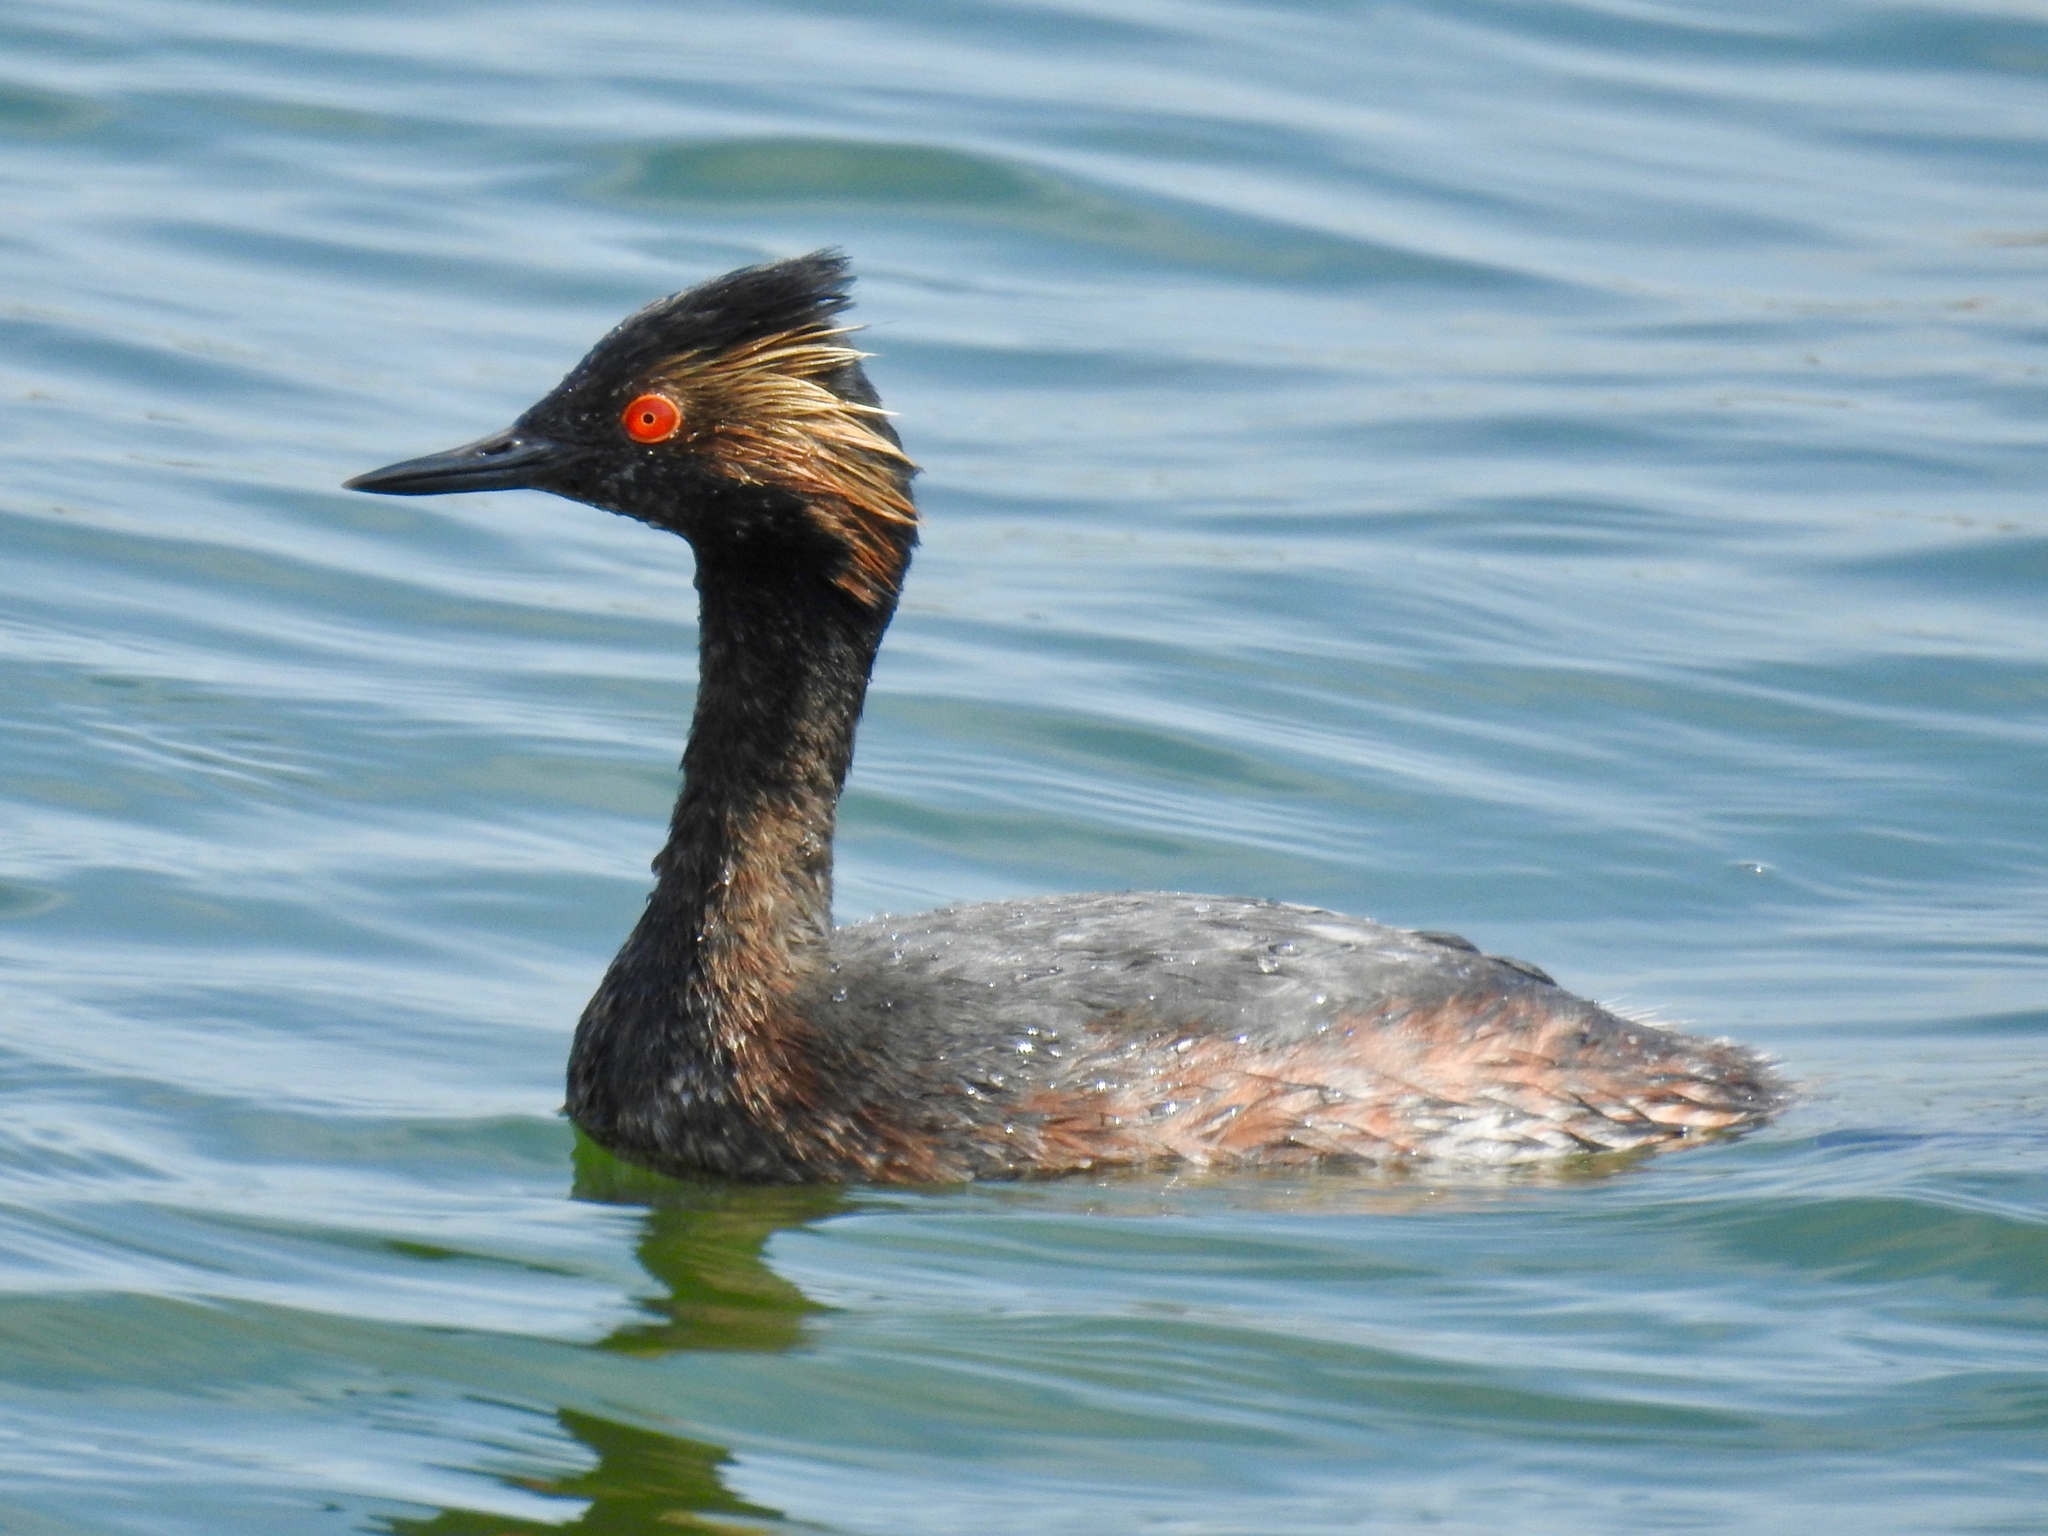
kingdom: Animalia
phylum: Chordata
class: Aves
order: Podicipediformes
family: Podicipedidae
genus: Podiceps
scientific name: Podiceps nigricollis
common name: Black-necked grebe
